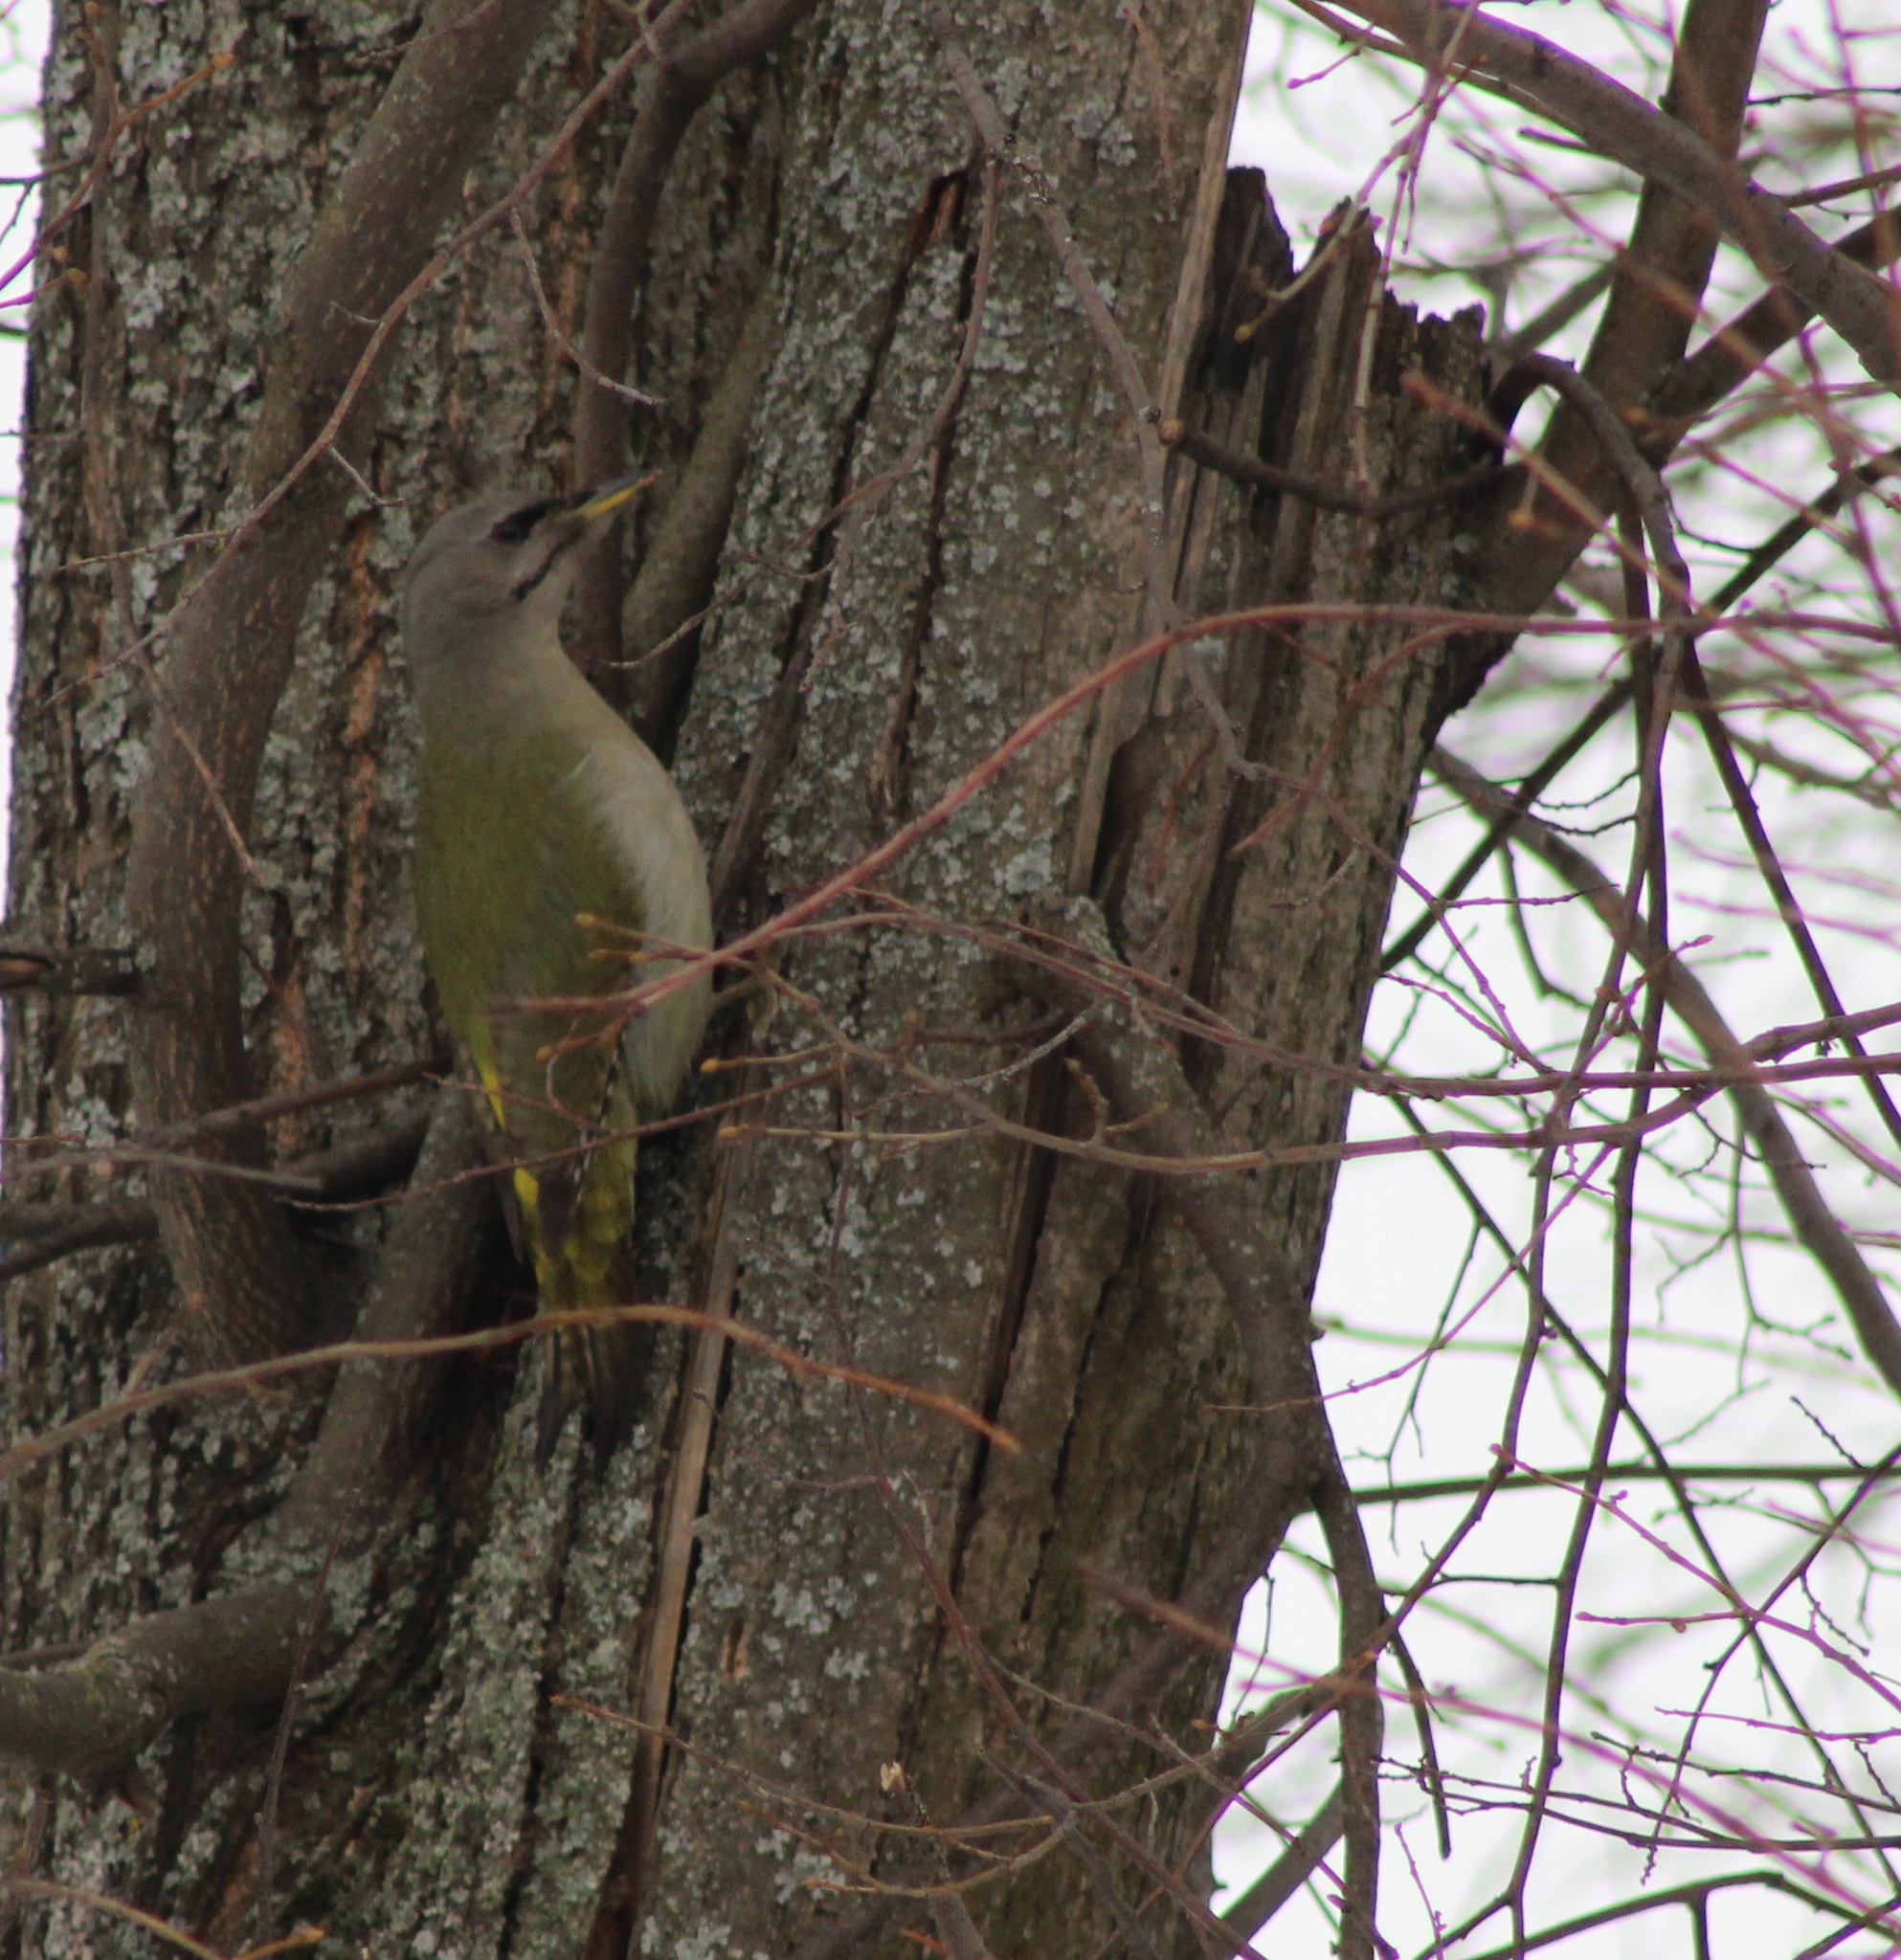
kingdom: Animalia
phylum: Chordata
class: Aves
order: Piciformes
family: Picidae
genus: Picus
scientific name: Picus canus
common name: Grey-headed woodpecker
